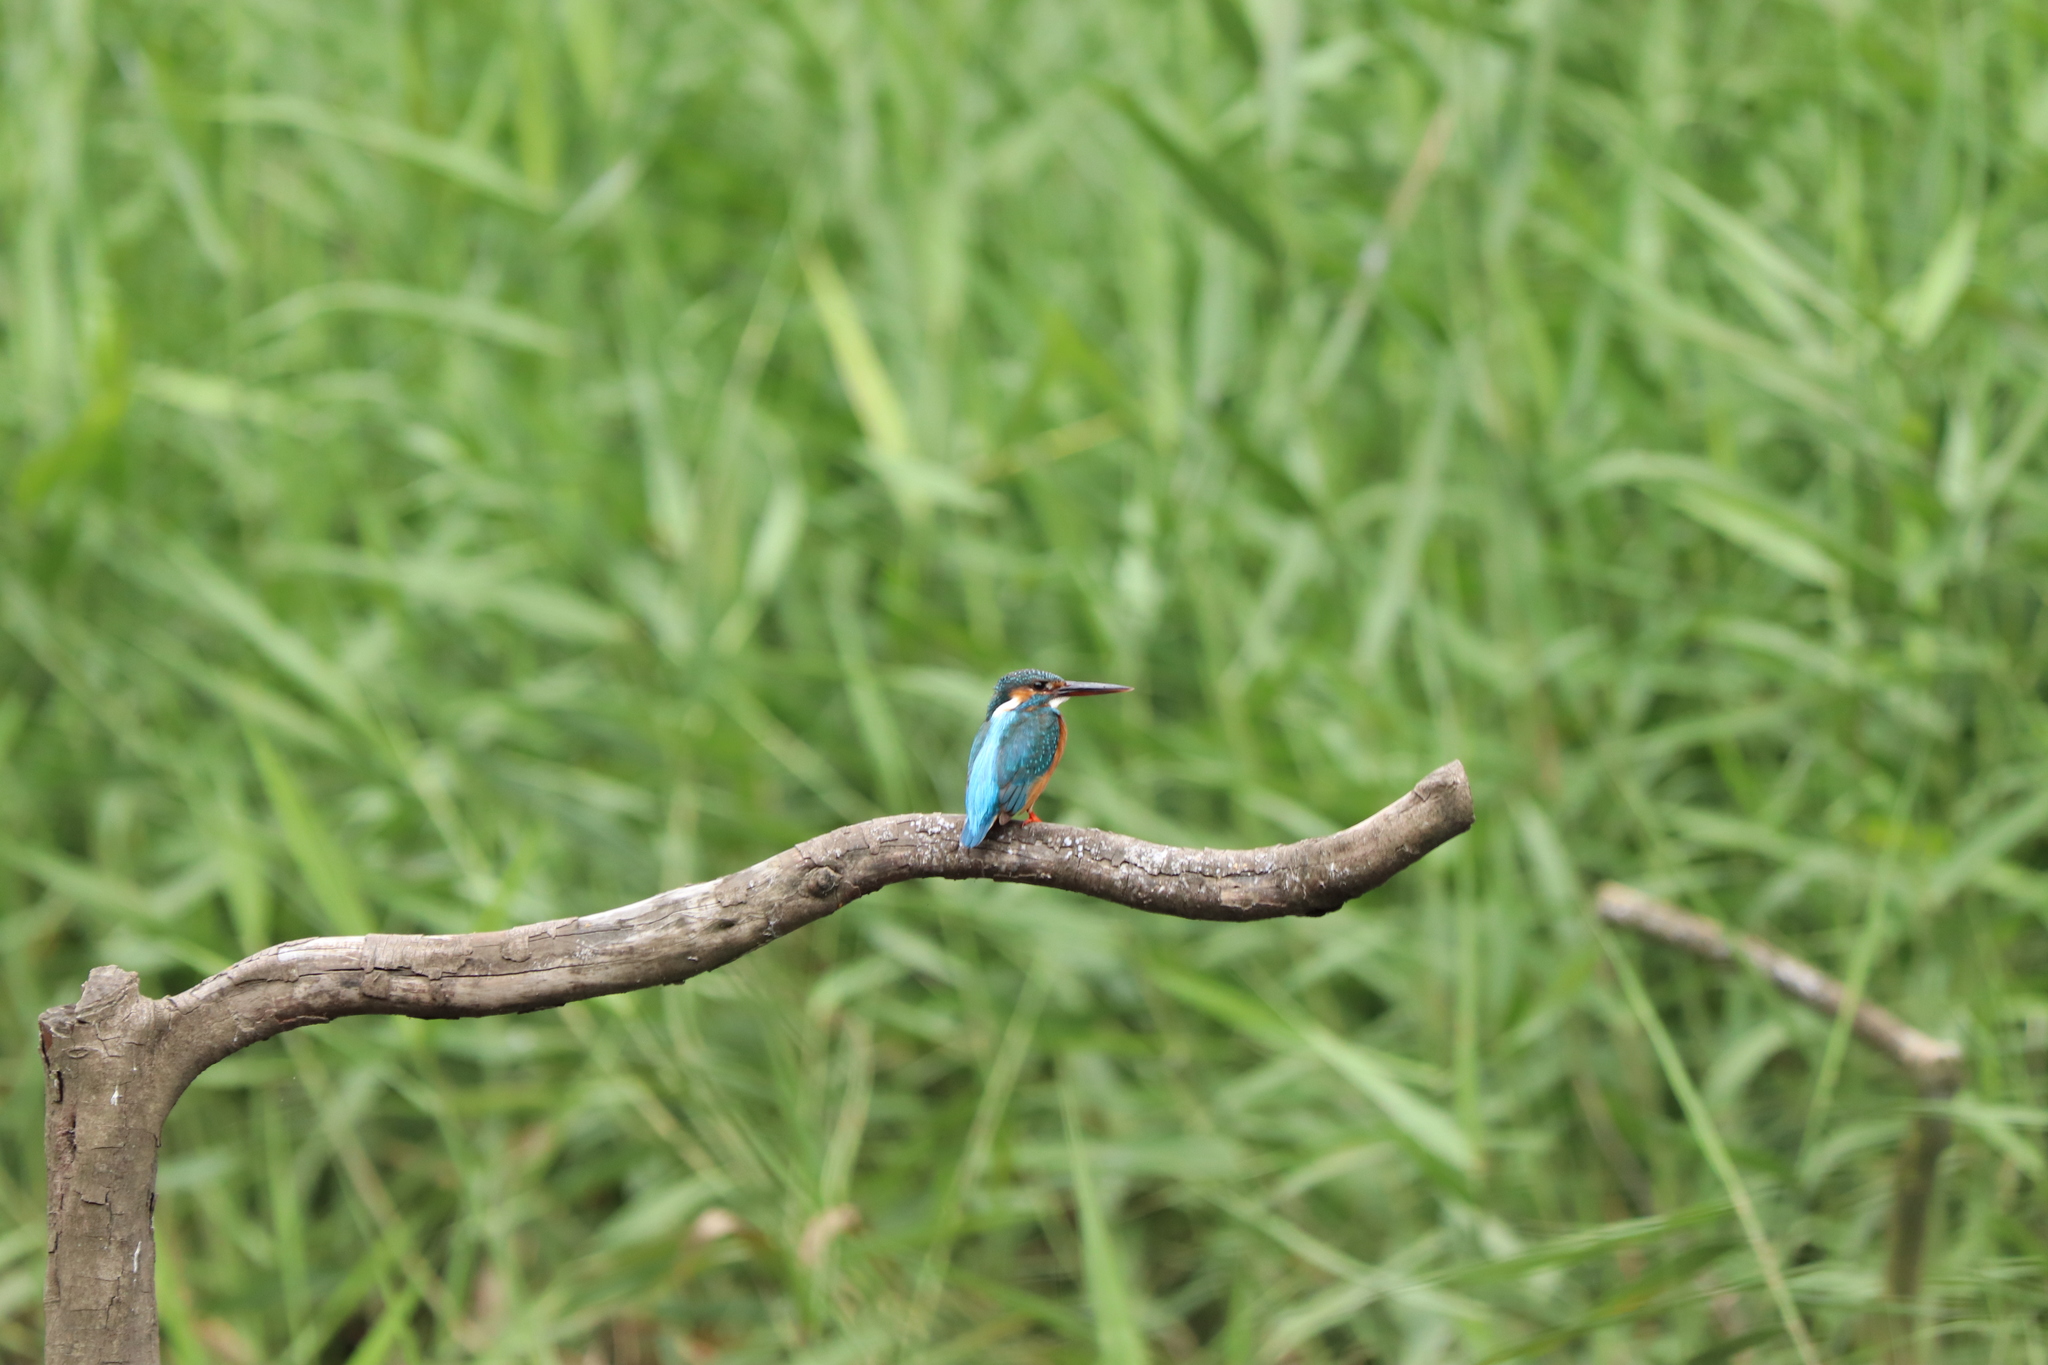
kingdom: Animalia
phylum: Chordata
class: Aves
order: Coraciiformes
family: Alcedinidae
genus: Alcedo
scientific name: Alcedo atthis
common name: Common kingfisher
